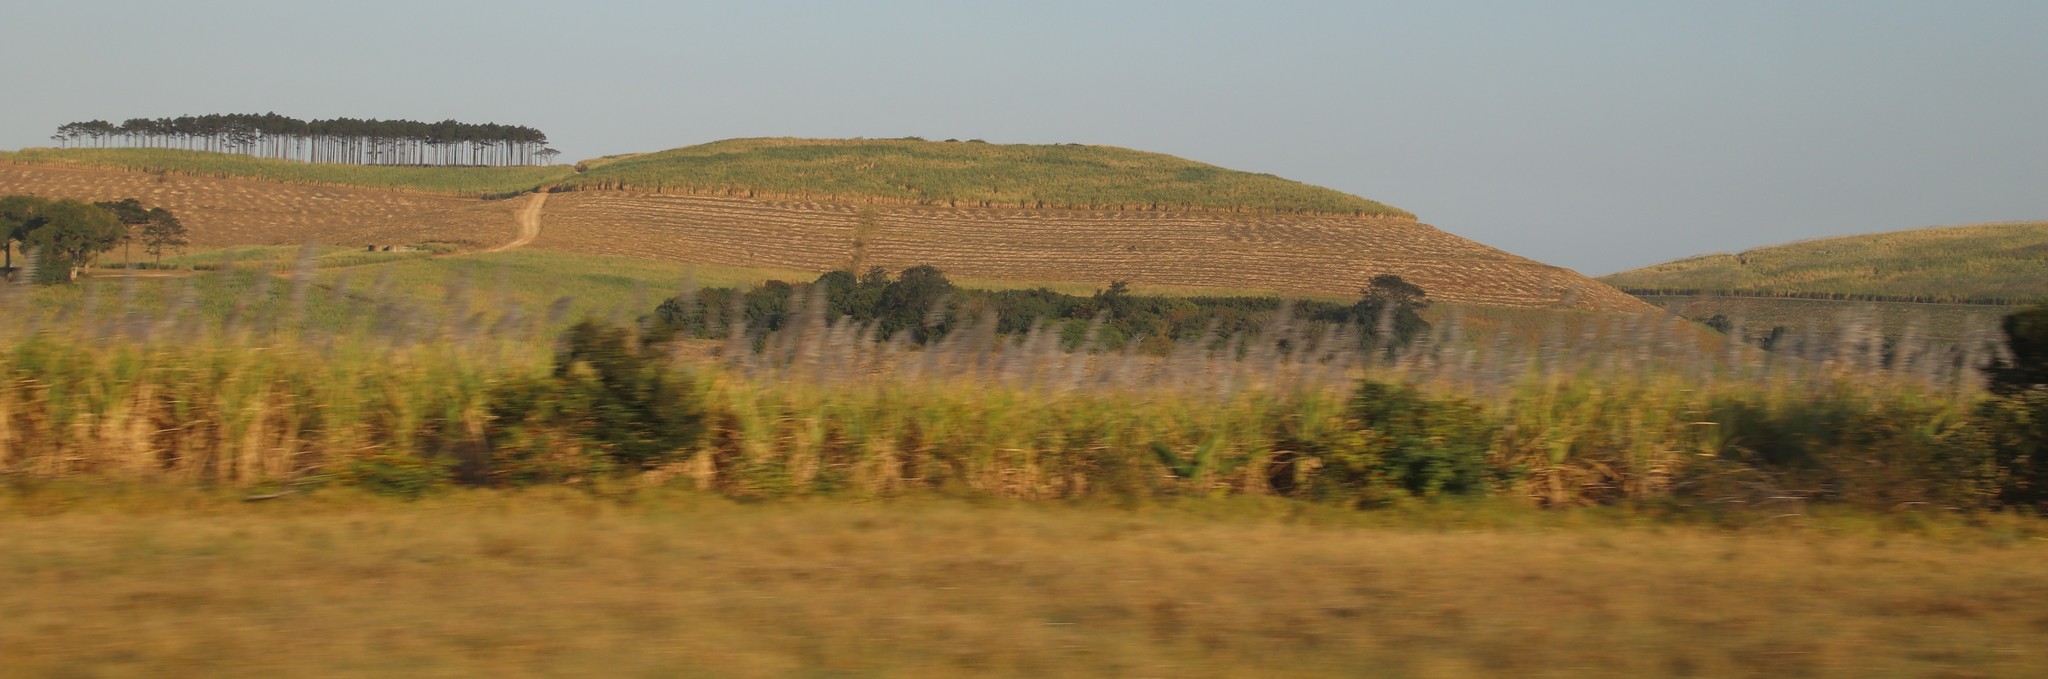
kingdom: Plantae
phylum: Tracheophyta
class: Liliopsida
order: Poales
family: Poaceae
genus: Saccharum
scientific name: Saccharum officinarum
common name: Sugarcane
